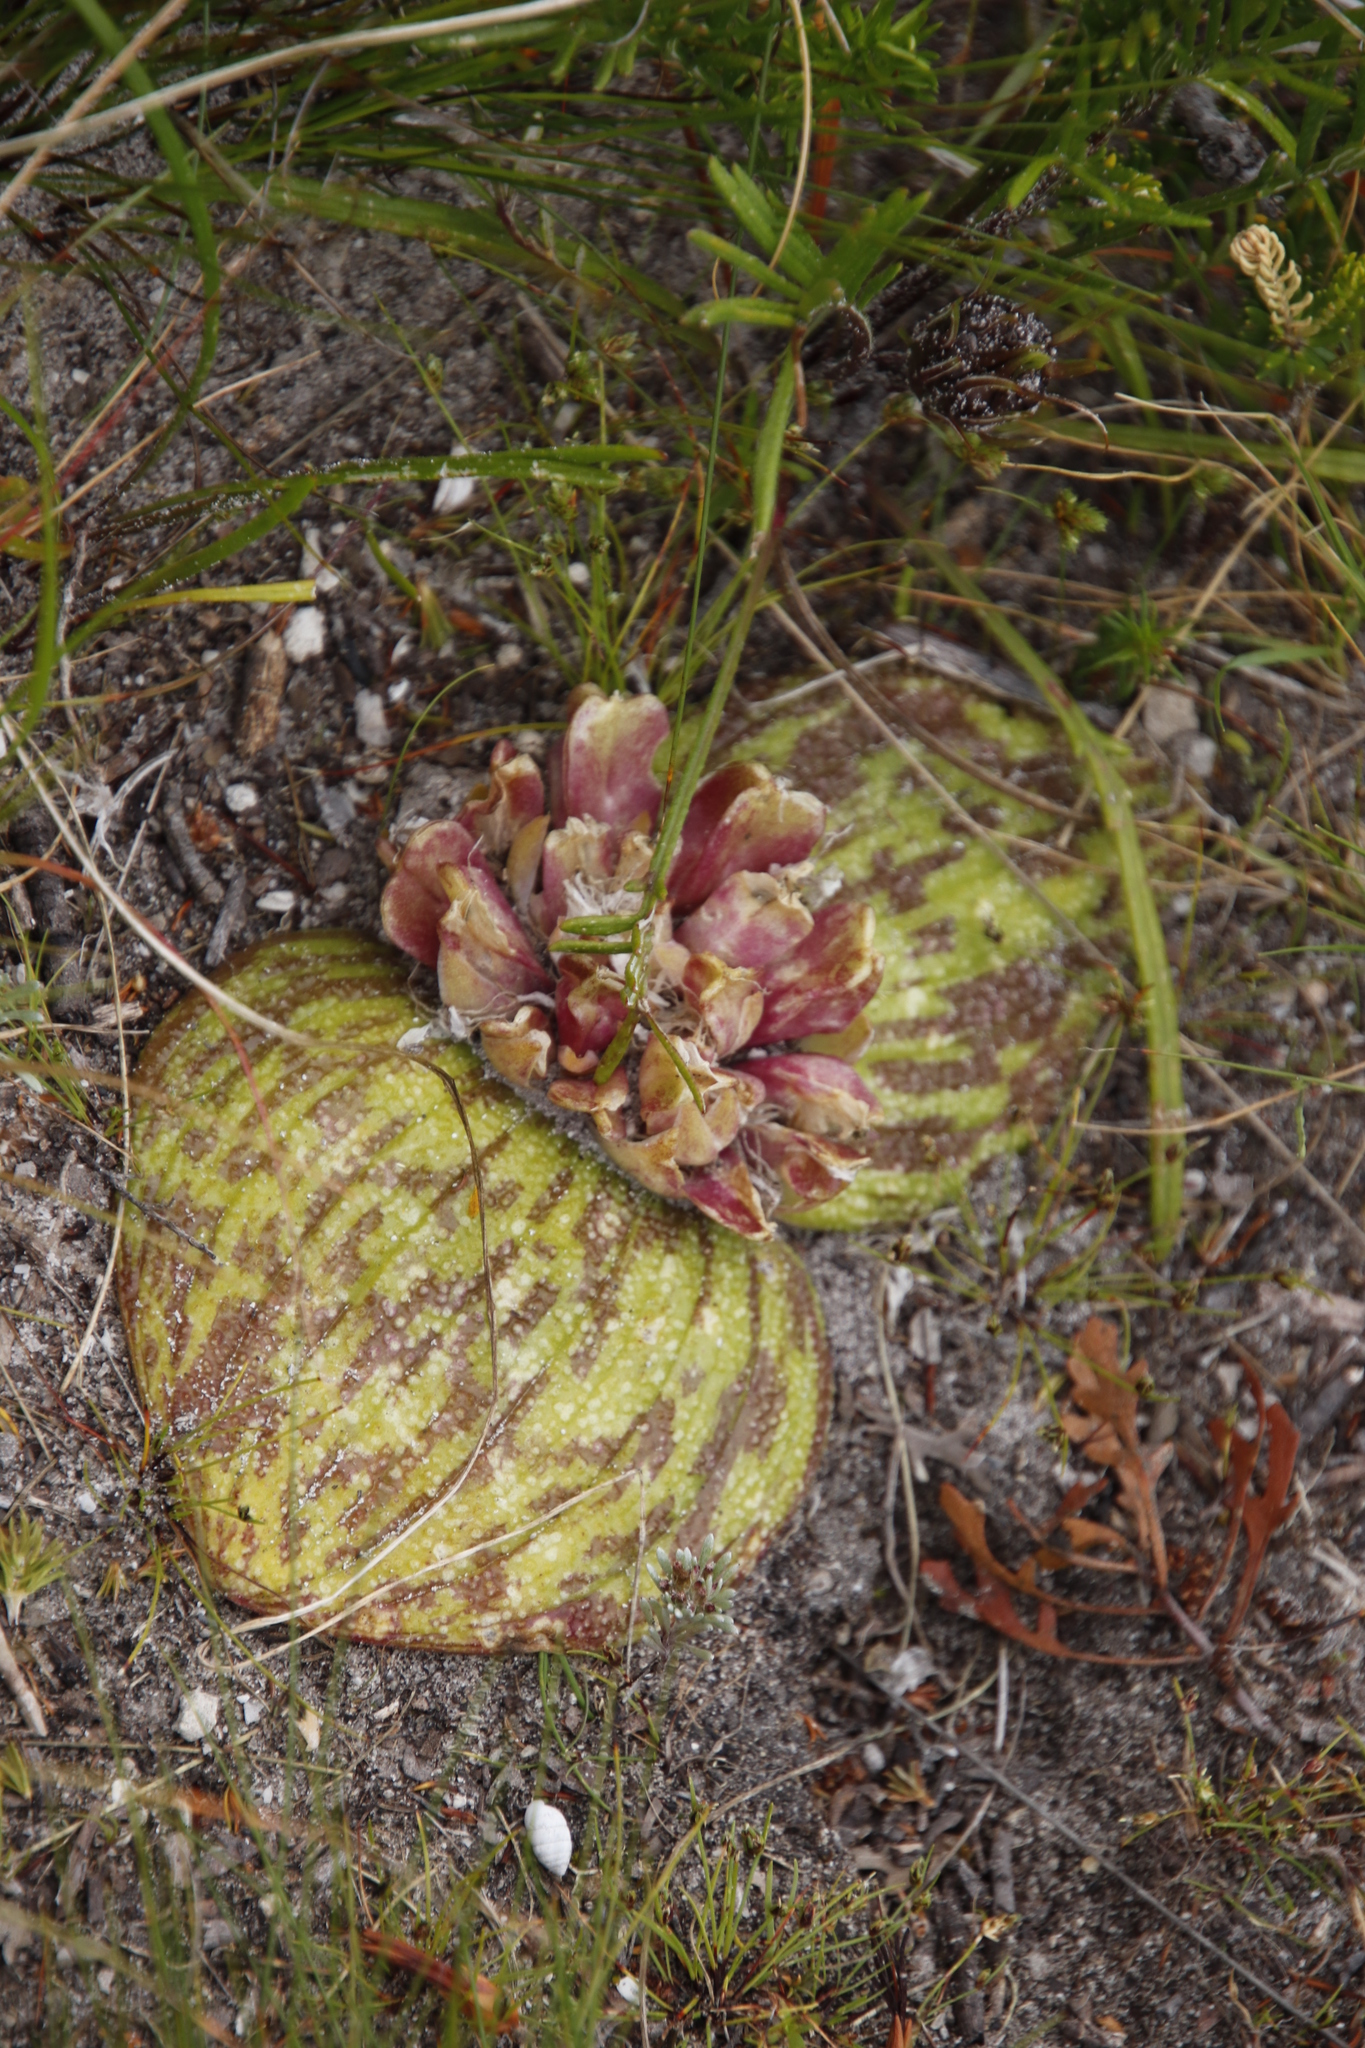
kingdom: Plantae
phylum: Tracheophyta
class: Liliopsida
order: Asparagales
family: Asparagaceae
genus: Massonia
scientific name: Massonia longipes
